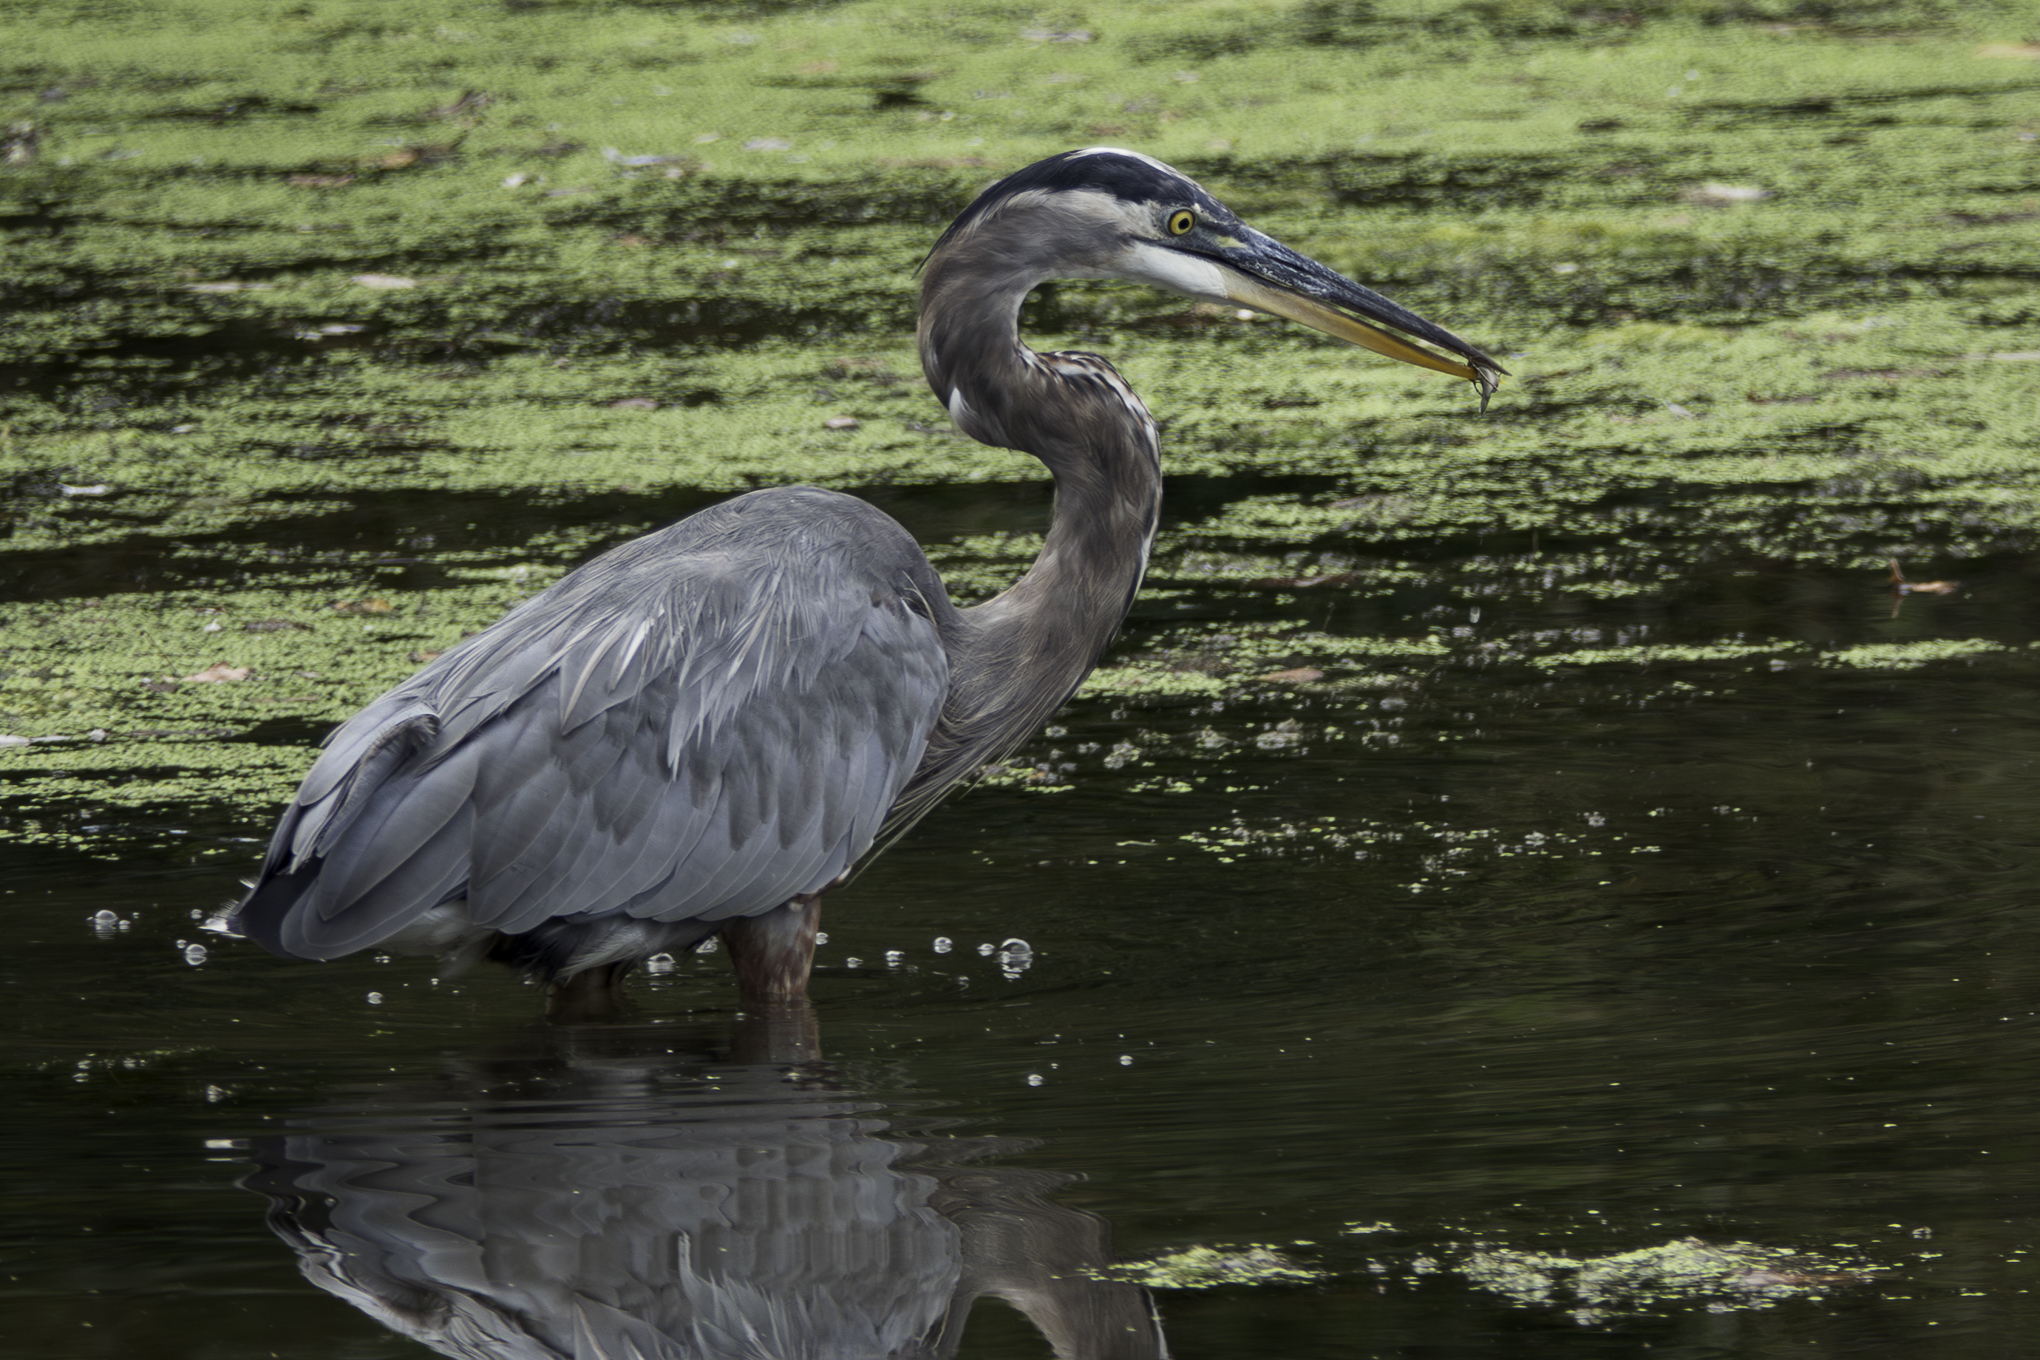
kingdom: Animalia
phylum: Chordata
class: Aves
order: Pelecaniformes
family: Ardeidae
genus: Ardea
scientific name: Ardea herodias
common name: Great blue heron
